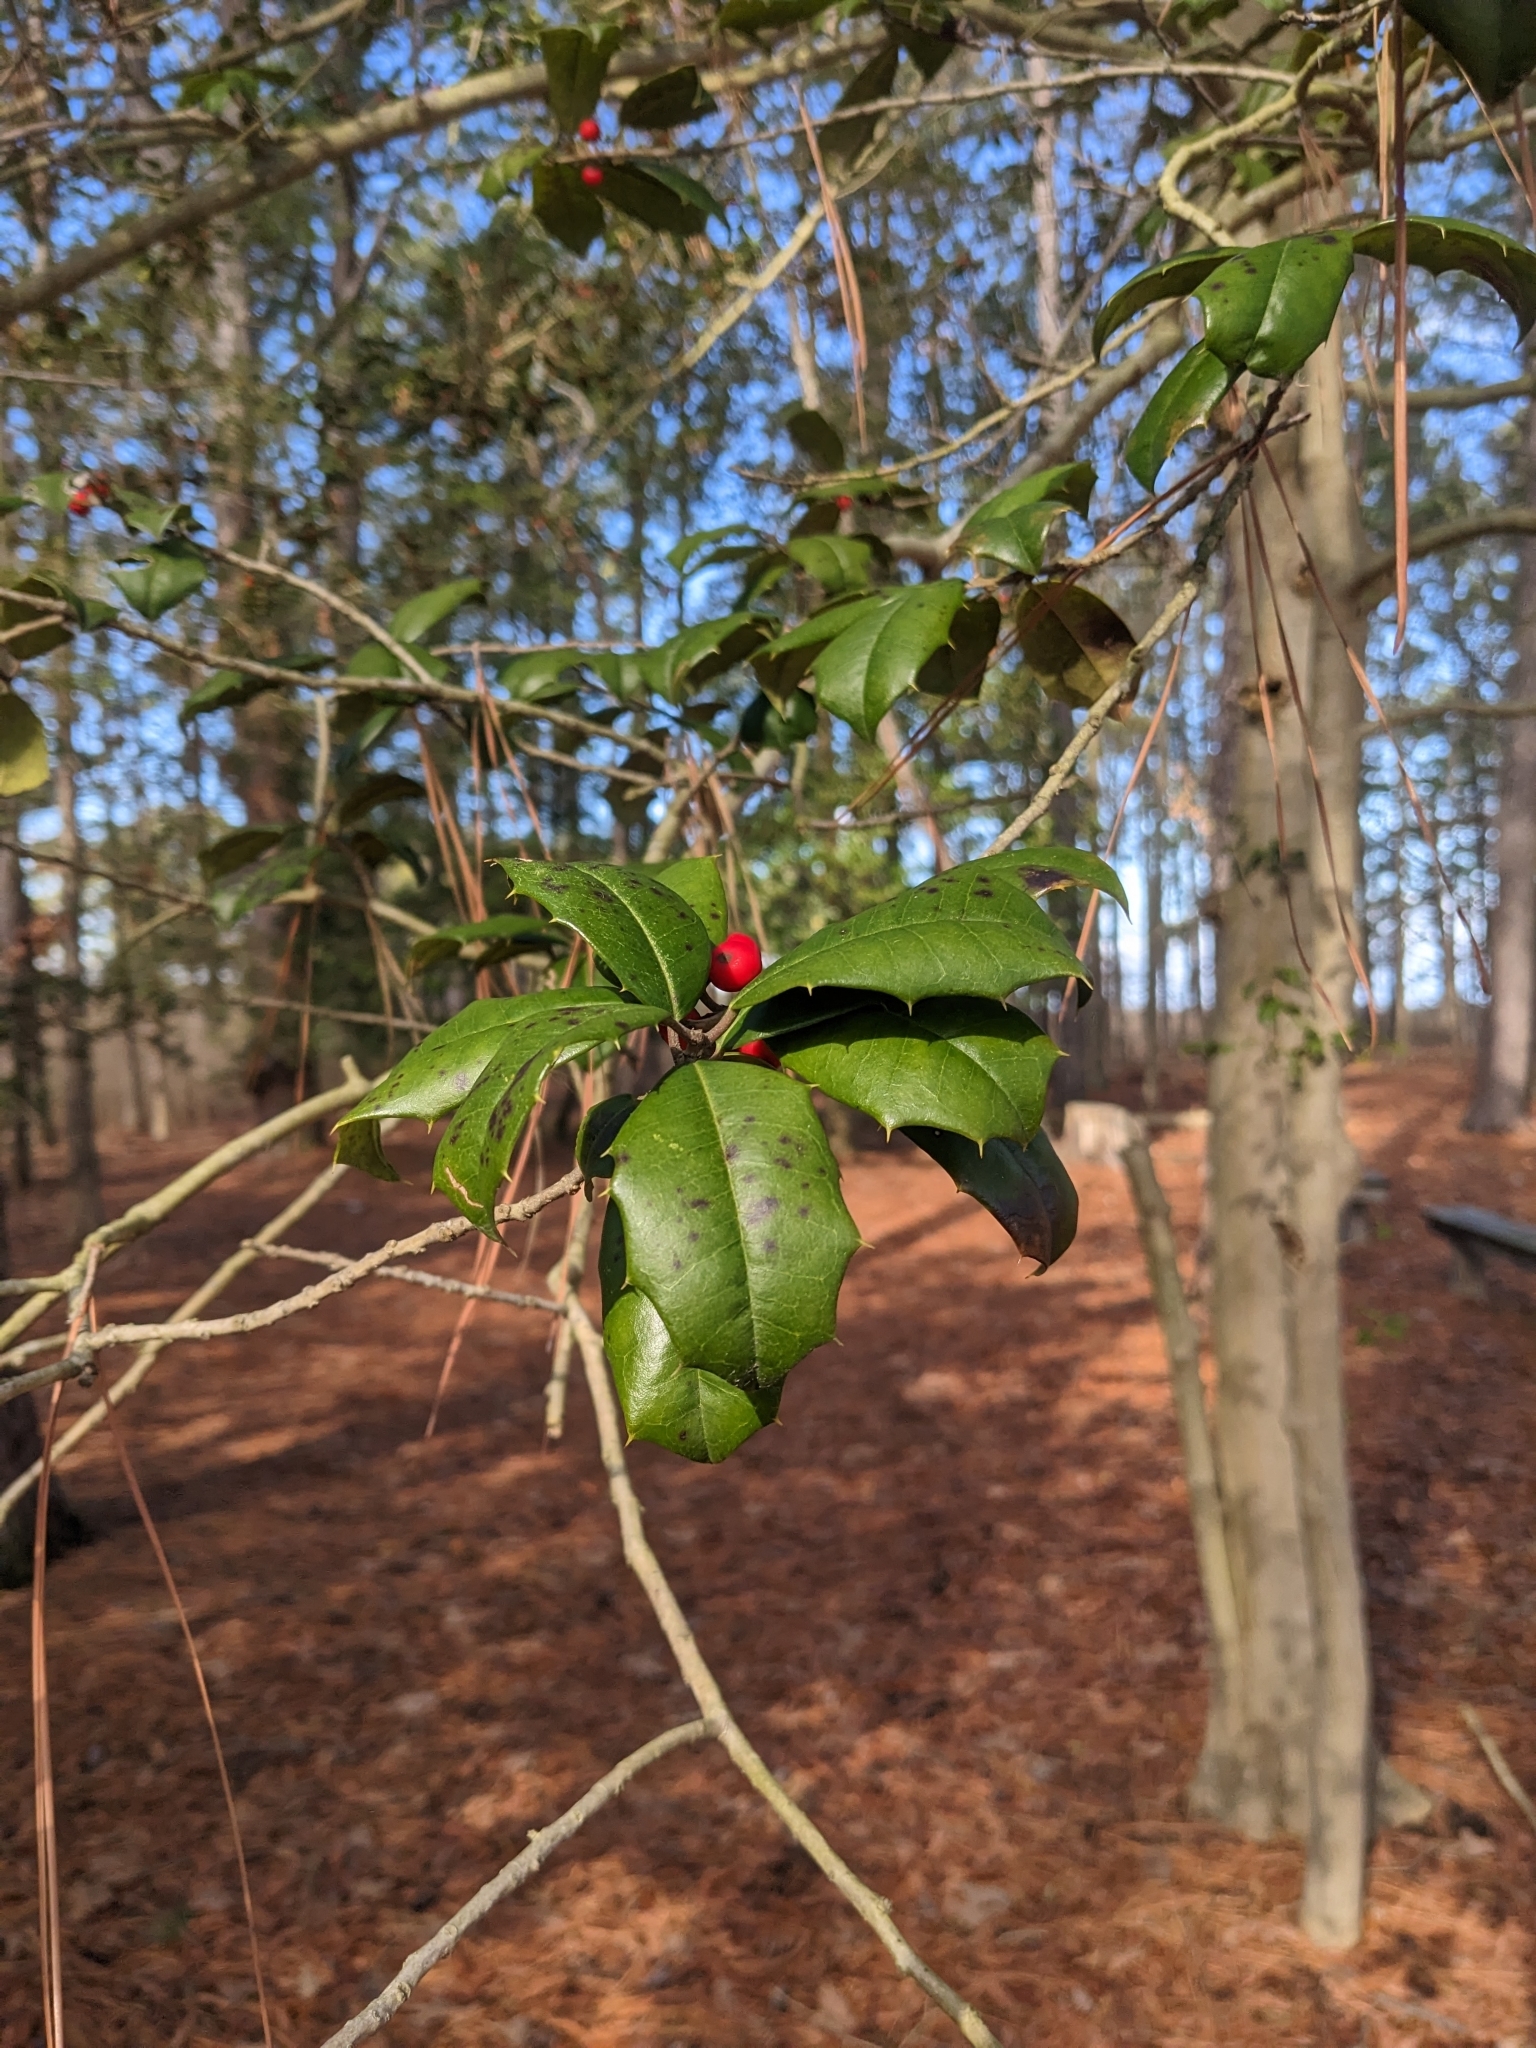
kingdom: Plantae
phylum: Tracheophyta
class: Magnoliopsida
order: Aquifoliales
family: Aquifoliaceae
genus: Ilex
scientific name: Ilex opaca
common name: American holly
